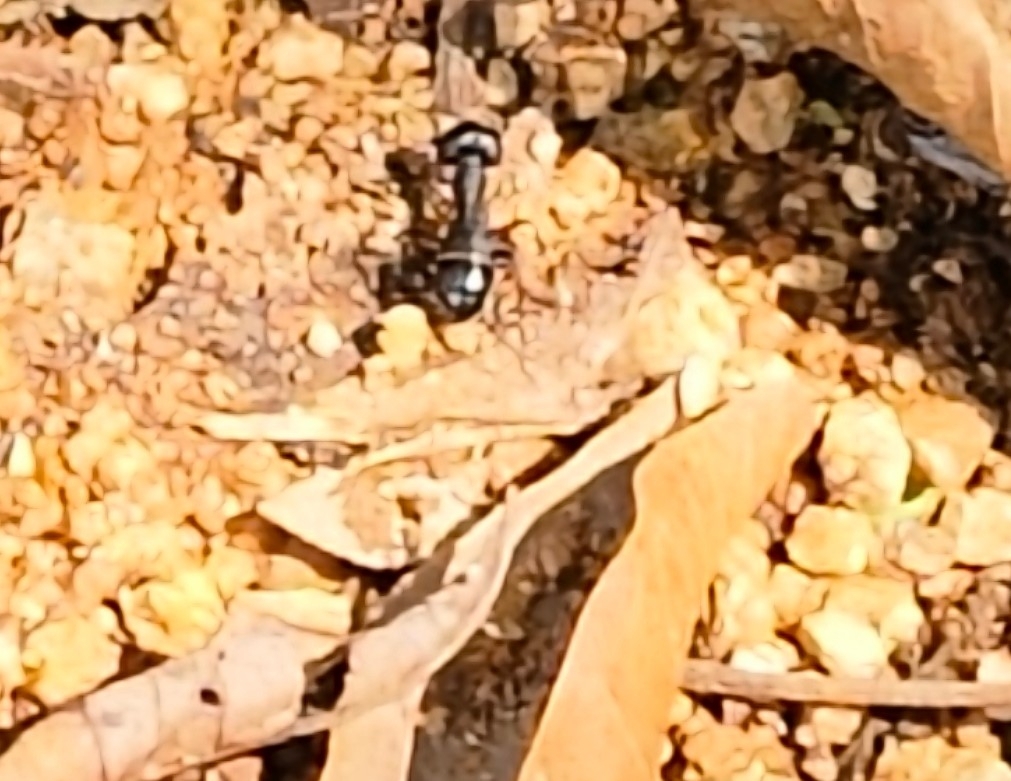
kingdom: Animalia
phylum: Arthropoda
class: Insecta
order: Hymenoptera
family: Formicidae
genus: Camponotus
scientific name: Camponotus compressus
